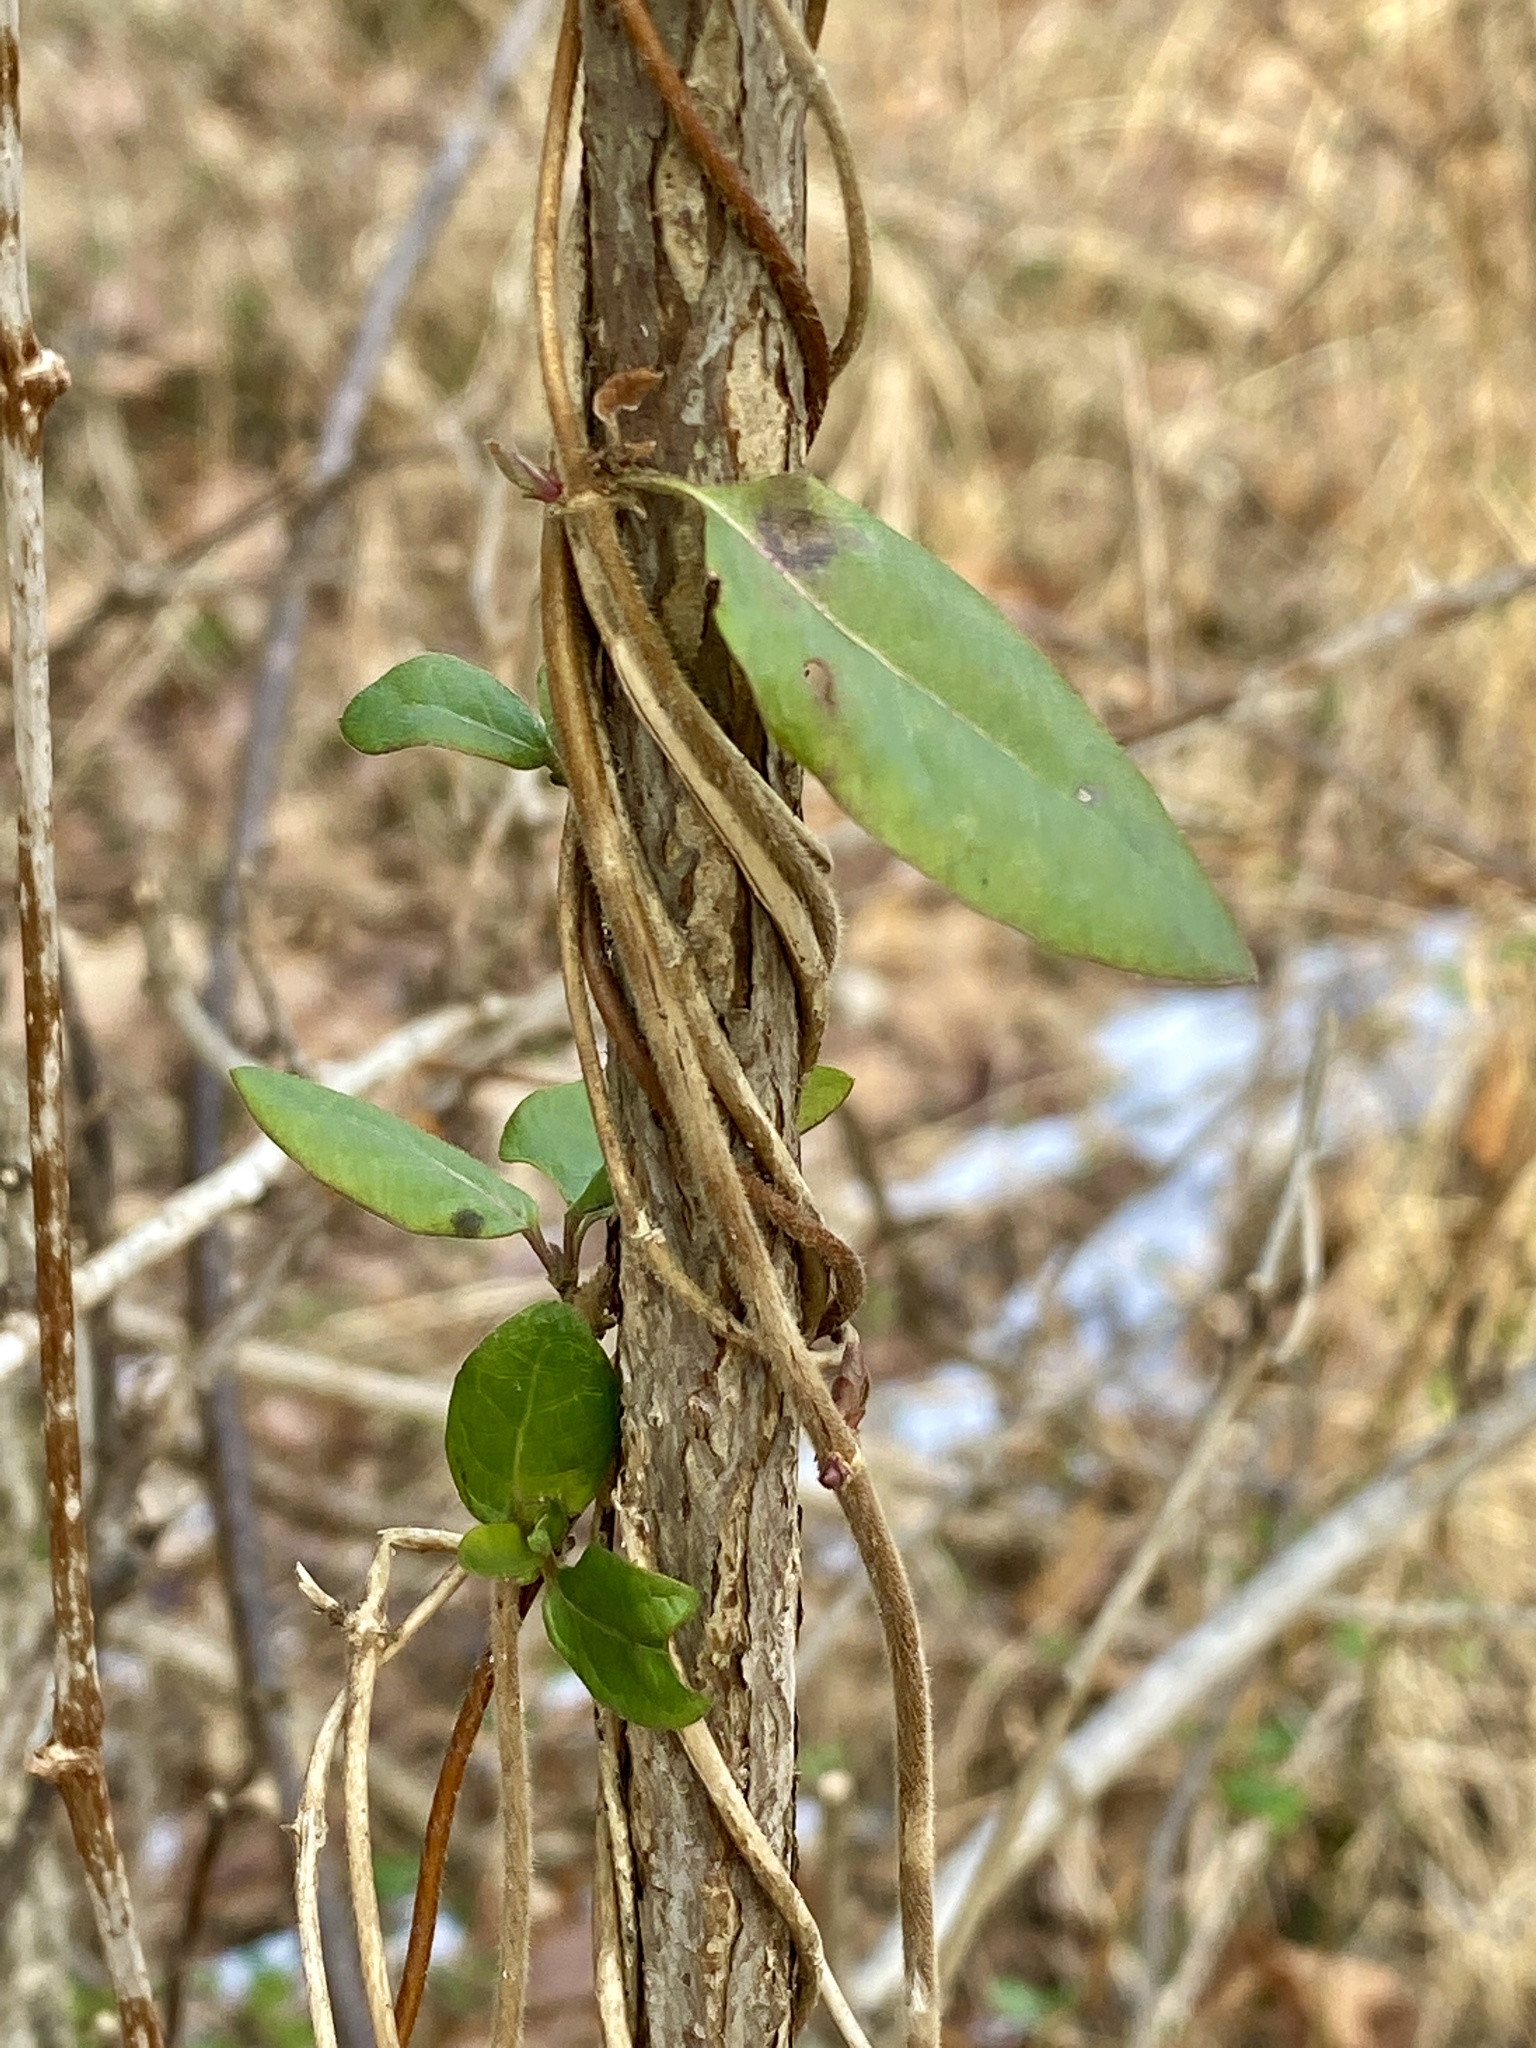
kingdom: Plantae
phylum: Tracheophyta
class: Magnoliopsida
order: Dipsacales
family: Caprifoliaceae
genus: Lonicera
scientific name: Lonicera japonica
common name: Japanese honeysuckle
